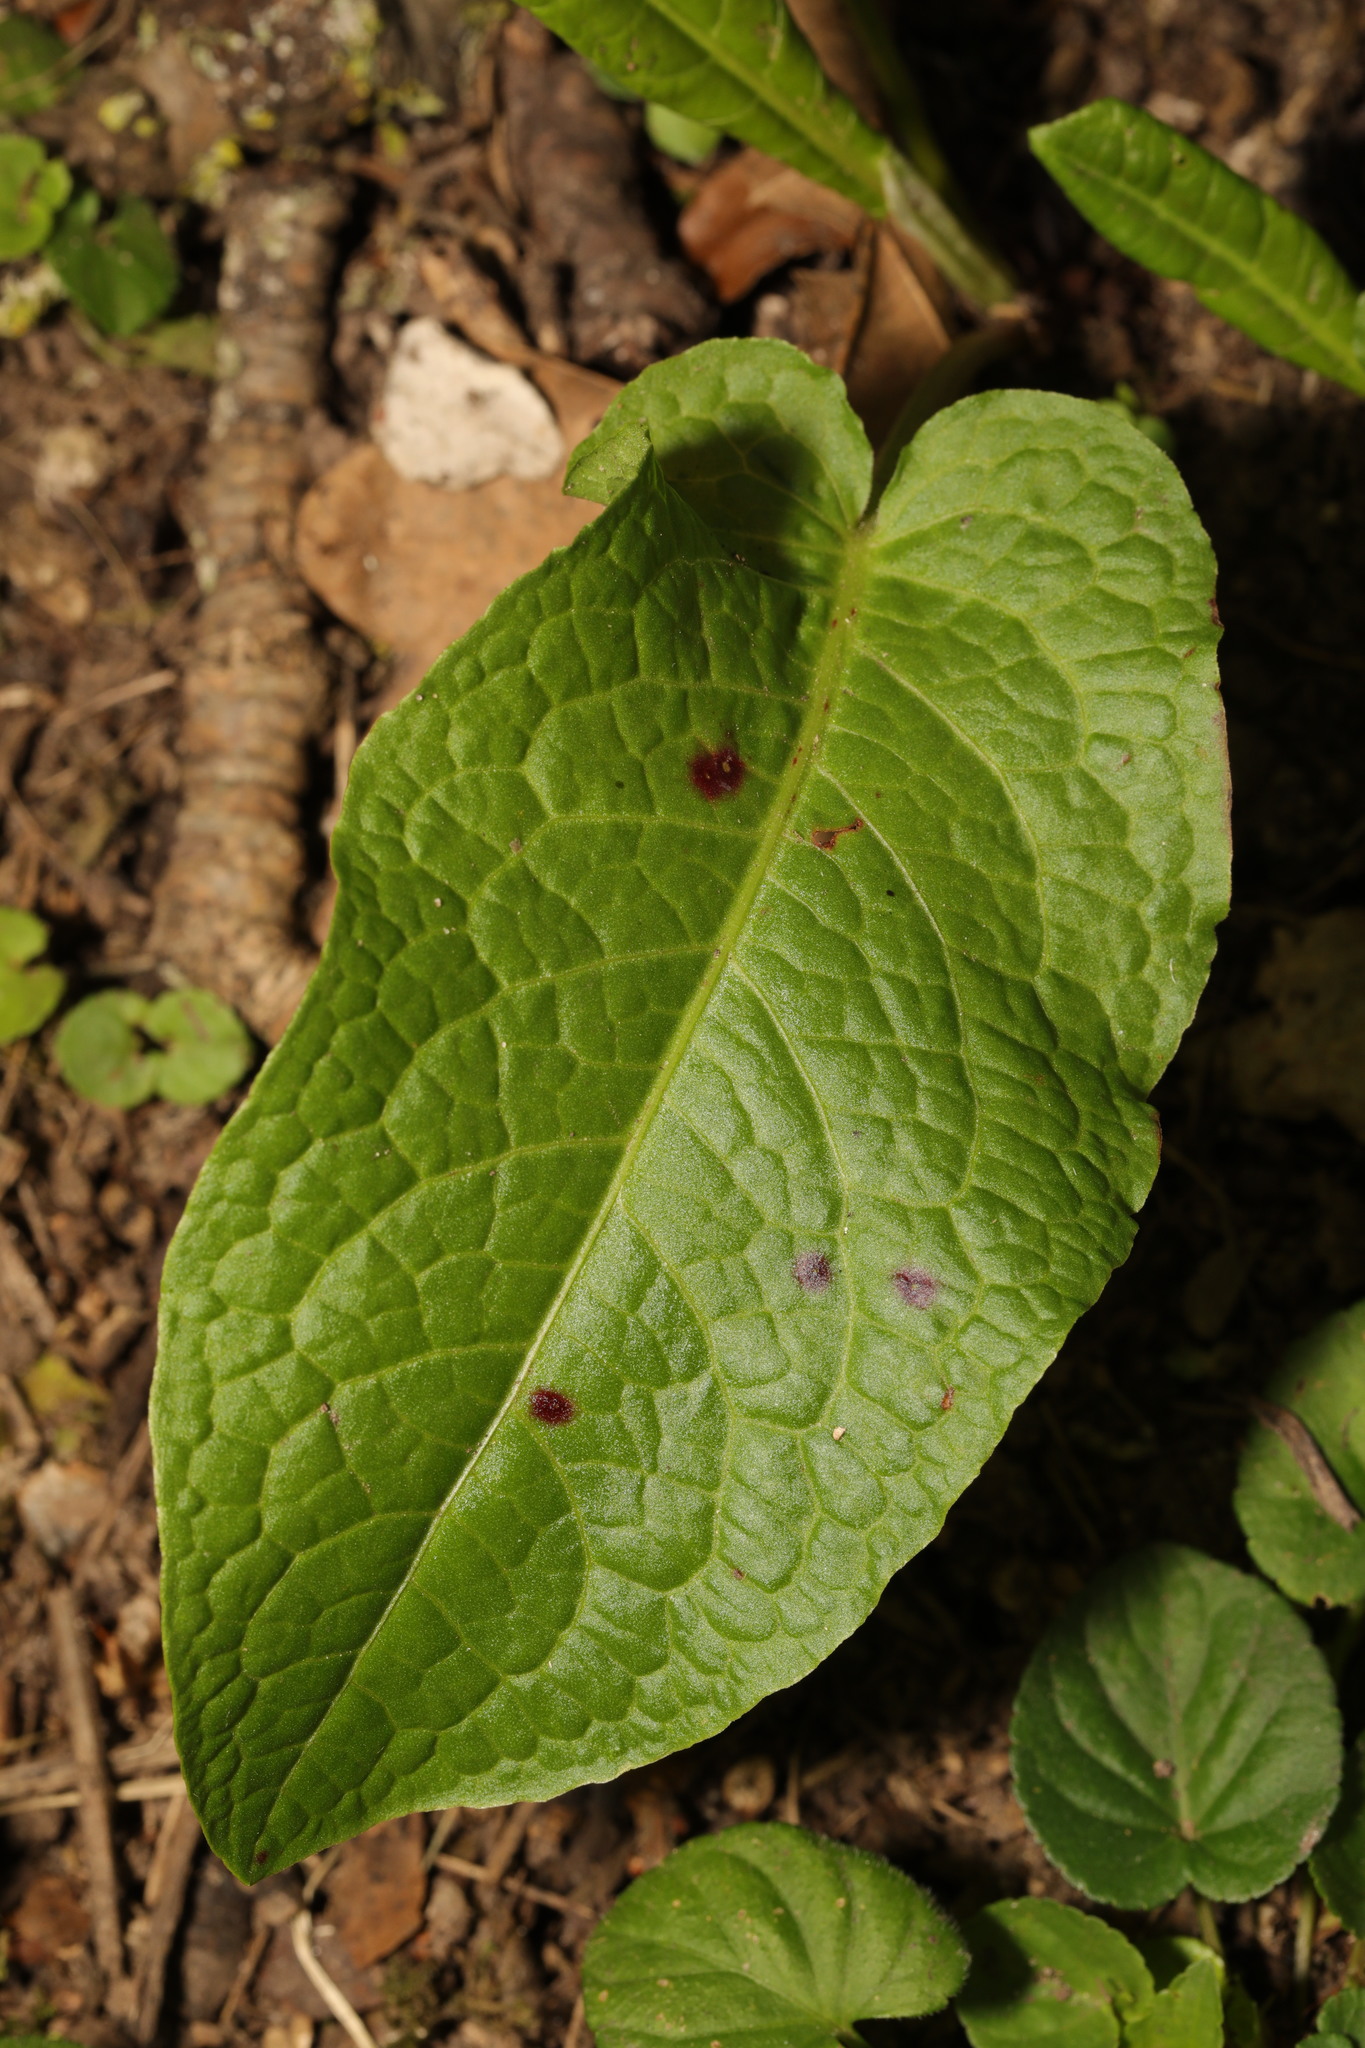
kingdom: Plantae
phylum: Tracheophyta
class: Magnoliopsida
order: Caryophyllales
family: Polygonaceae
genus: Rumex
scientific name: Rumex obtusifolius
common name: Bitter dock
